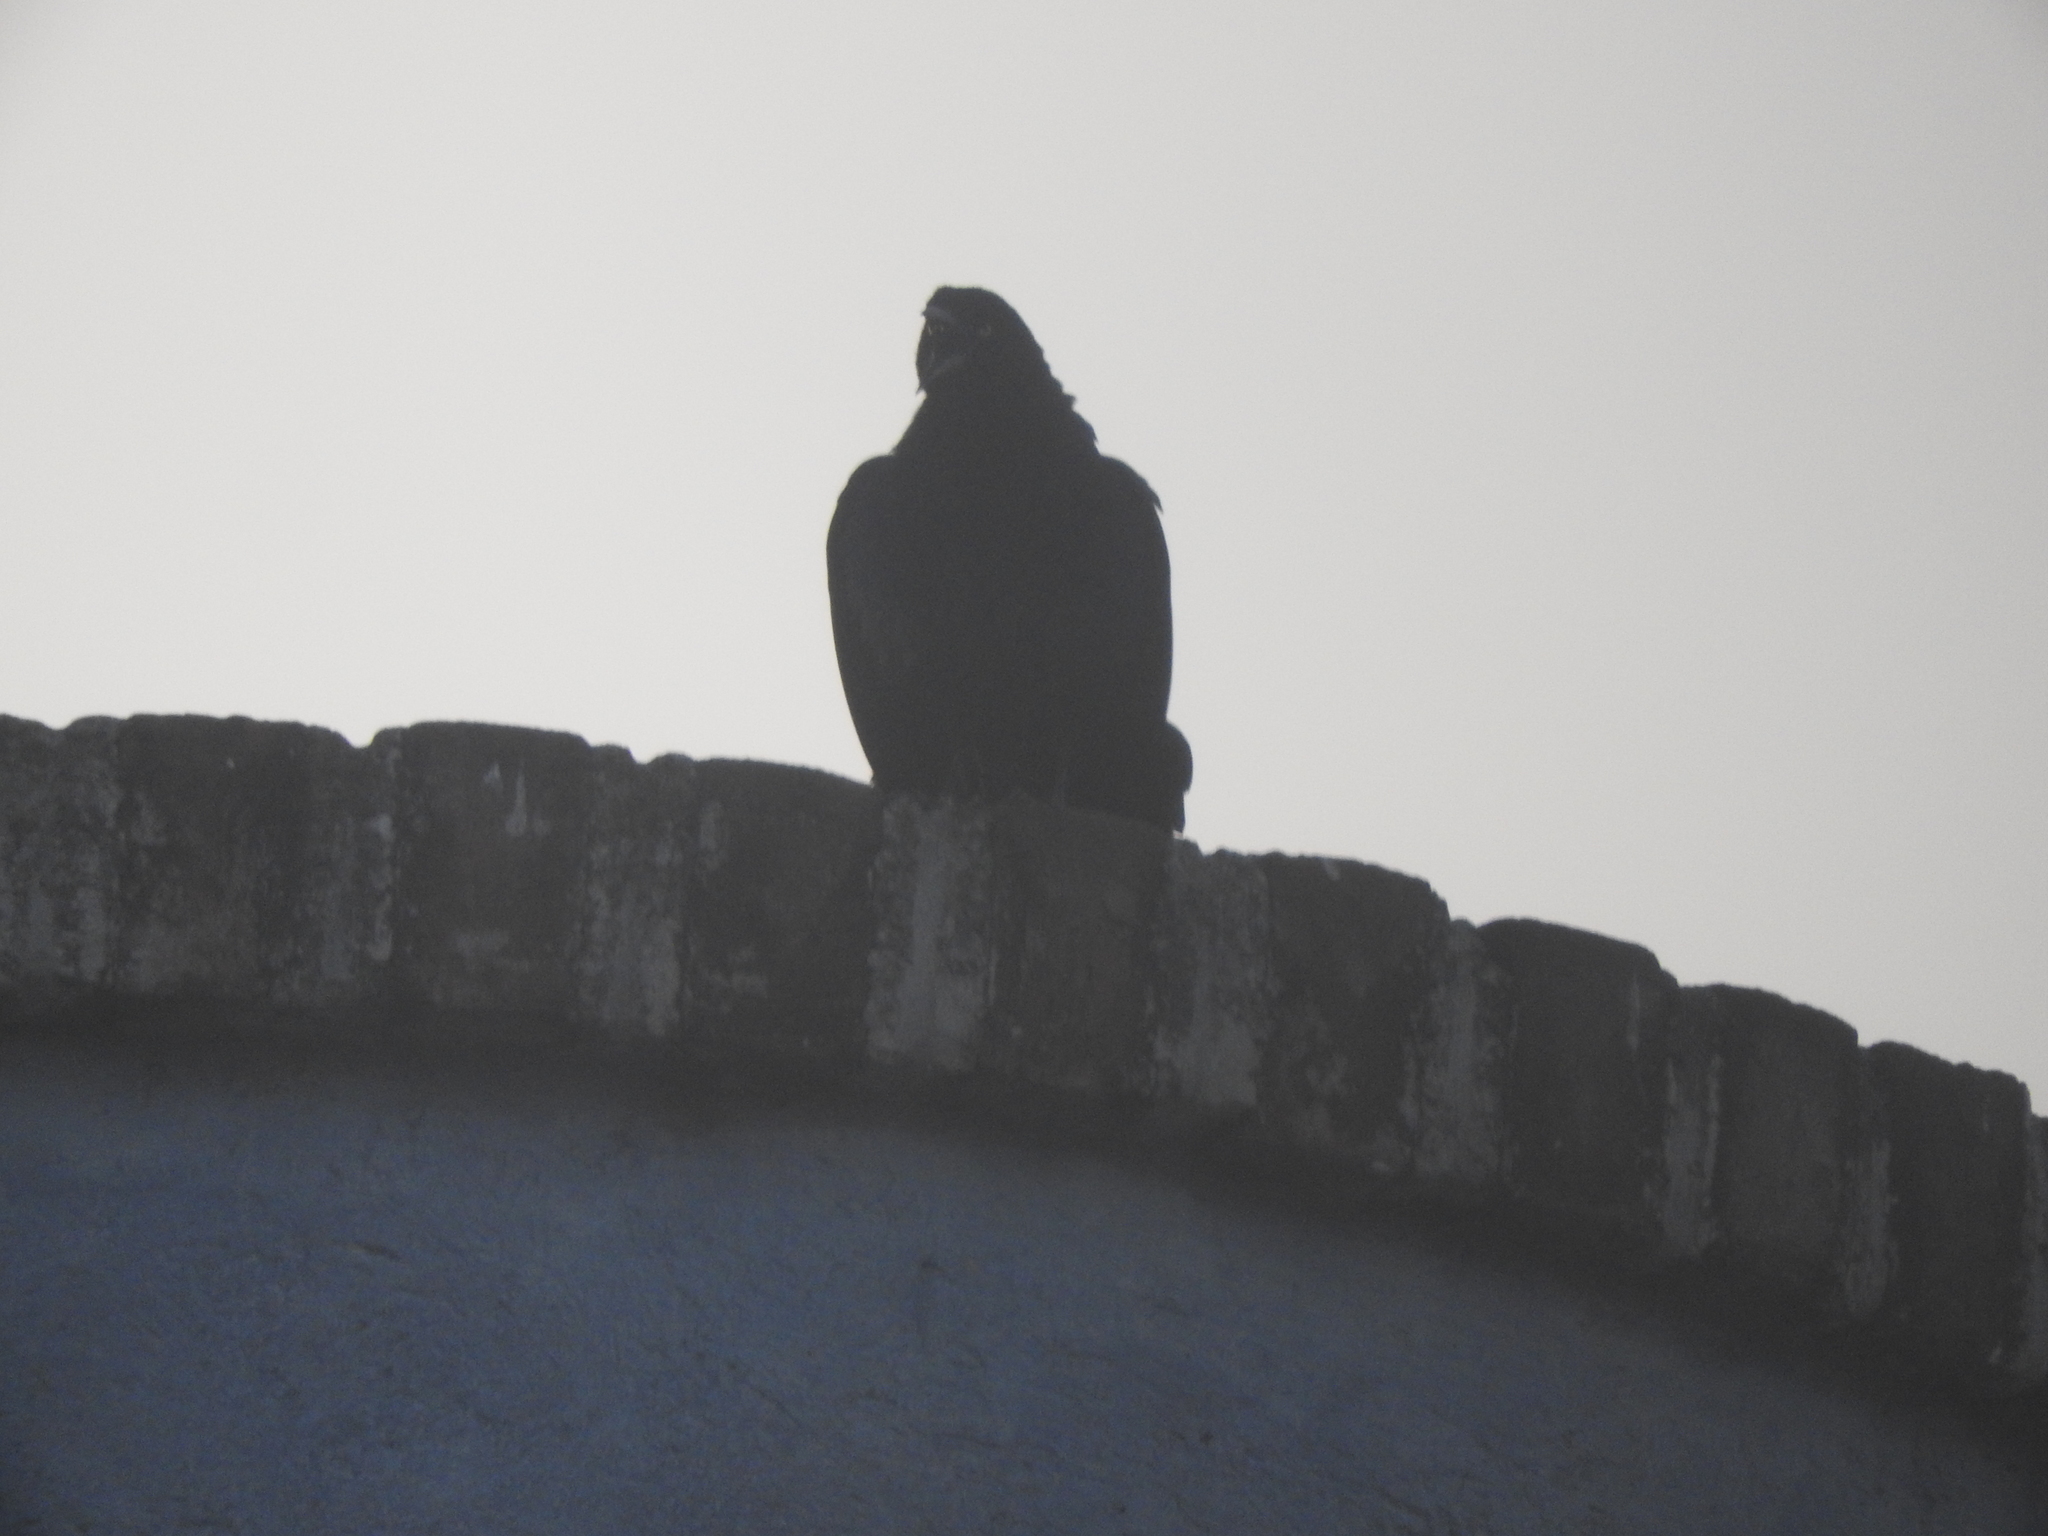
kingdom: Animalia
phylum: Chordata
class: Aves
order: Passeriformes
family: Icteridae
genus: Quiscalus
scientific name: Quiscalus mexicanus
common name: Great-tailed grackle
